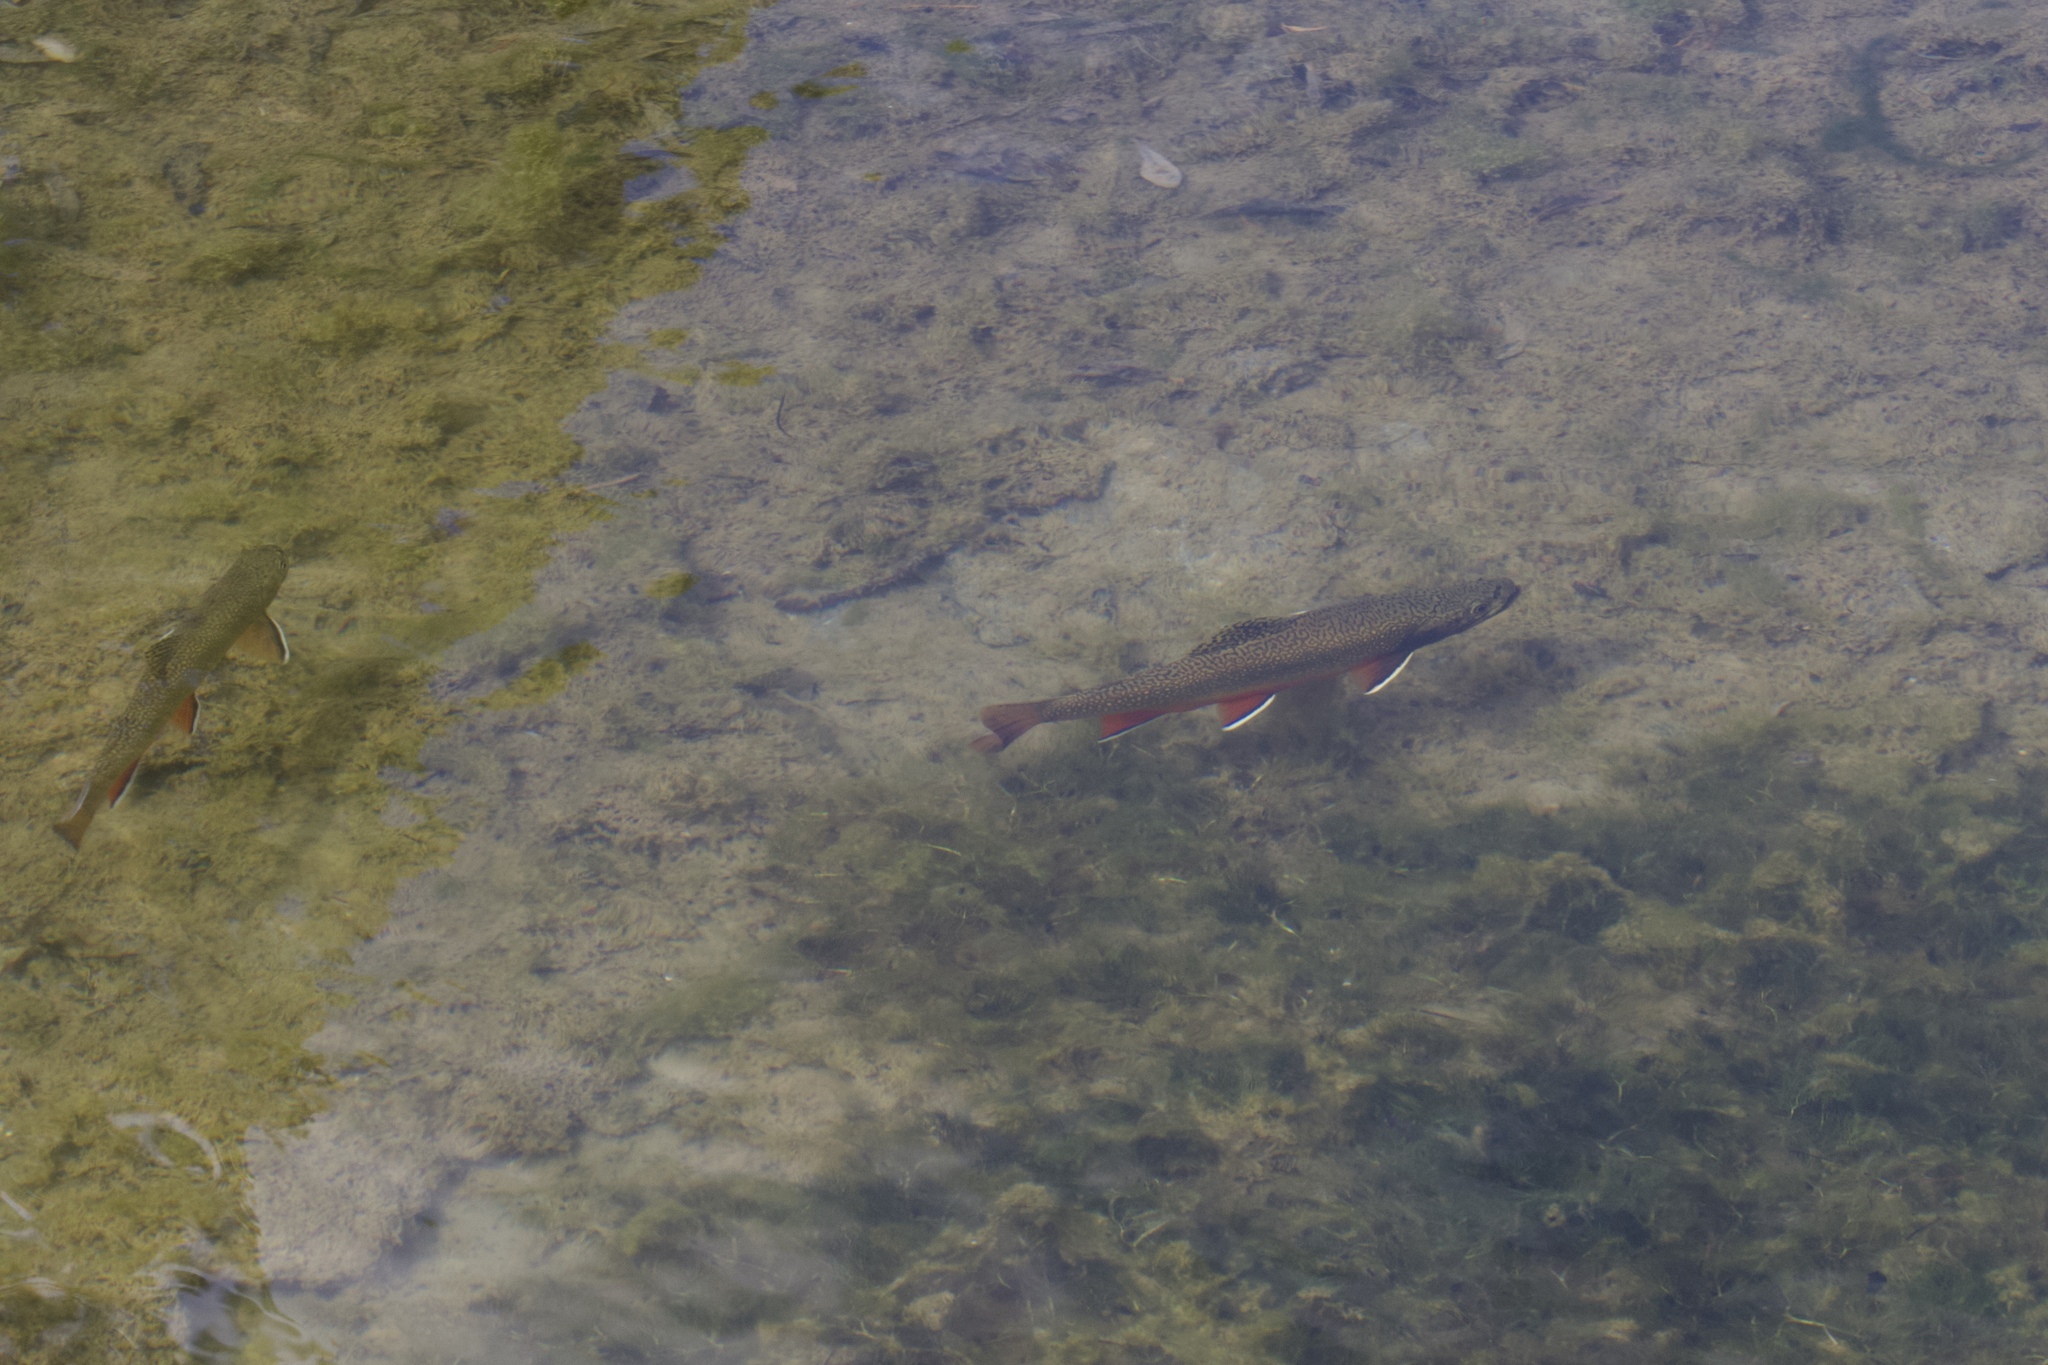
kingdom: Animalia
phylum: Chordata
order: Salmoniformes
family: Salmonidae
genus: Salvelinus
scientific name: Salvelinus fontinalis
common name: Brook trout
